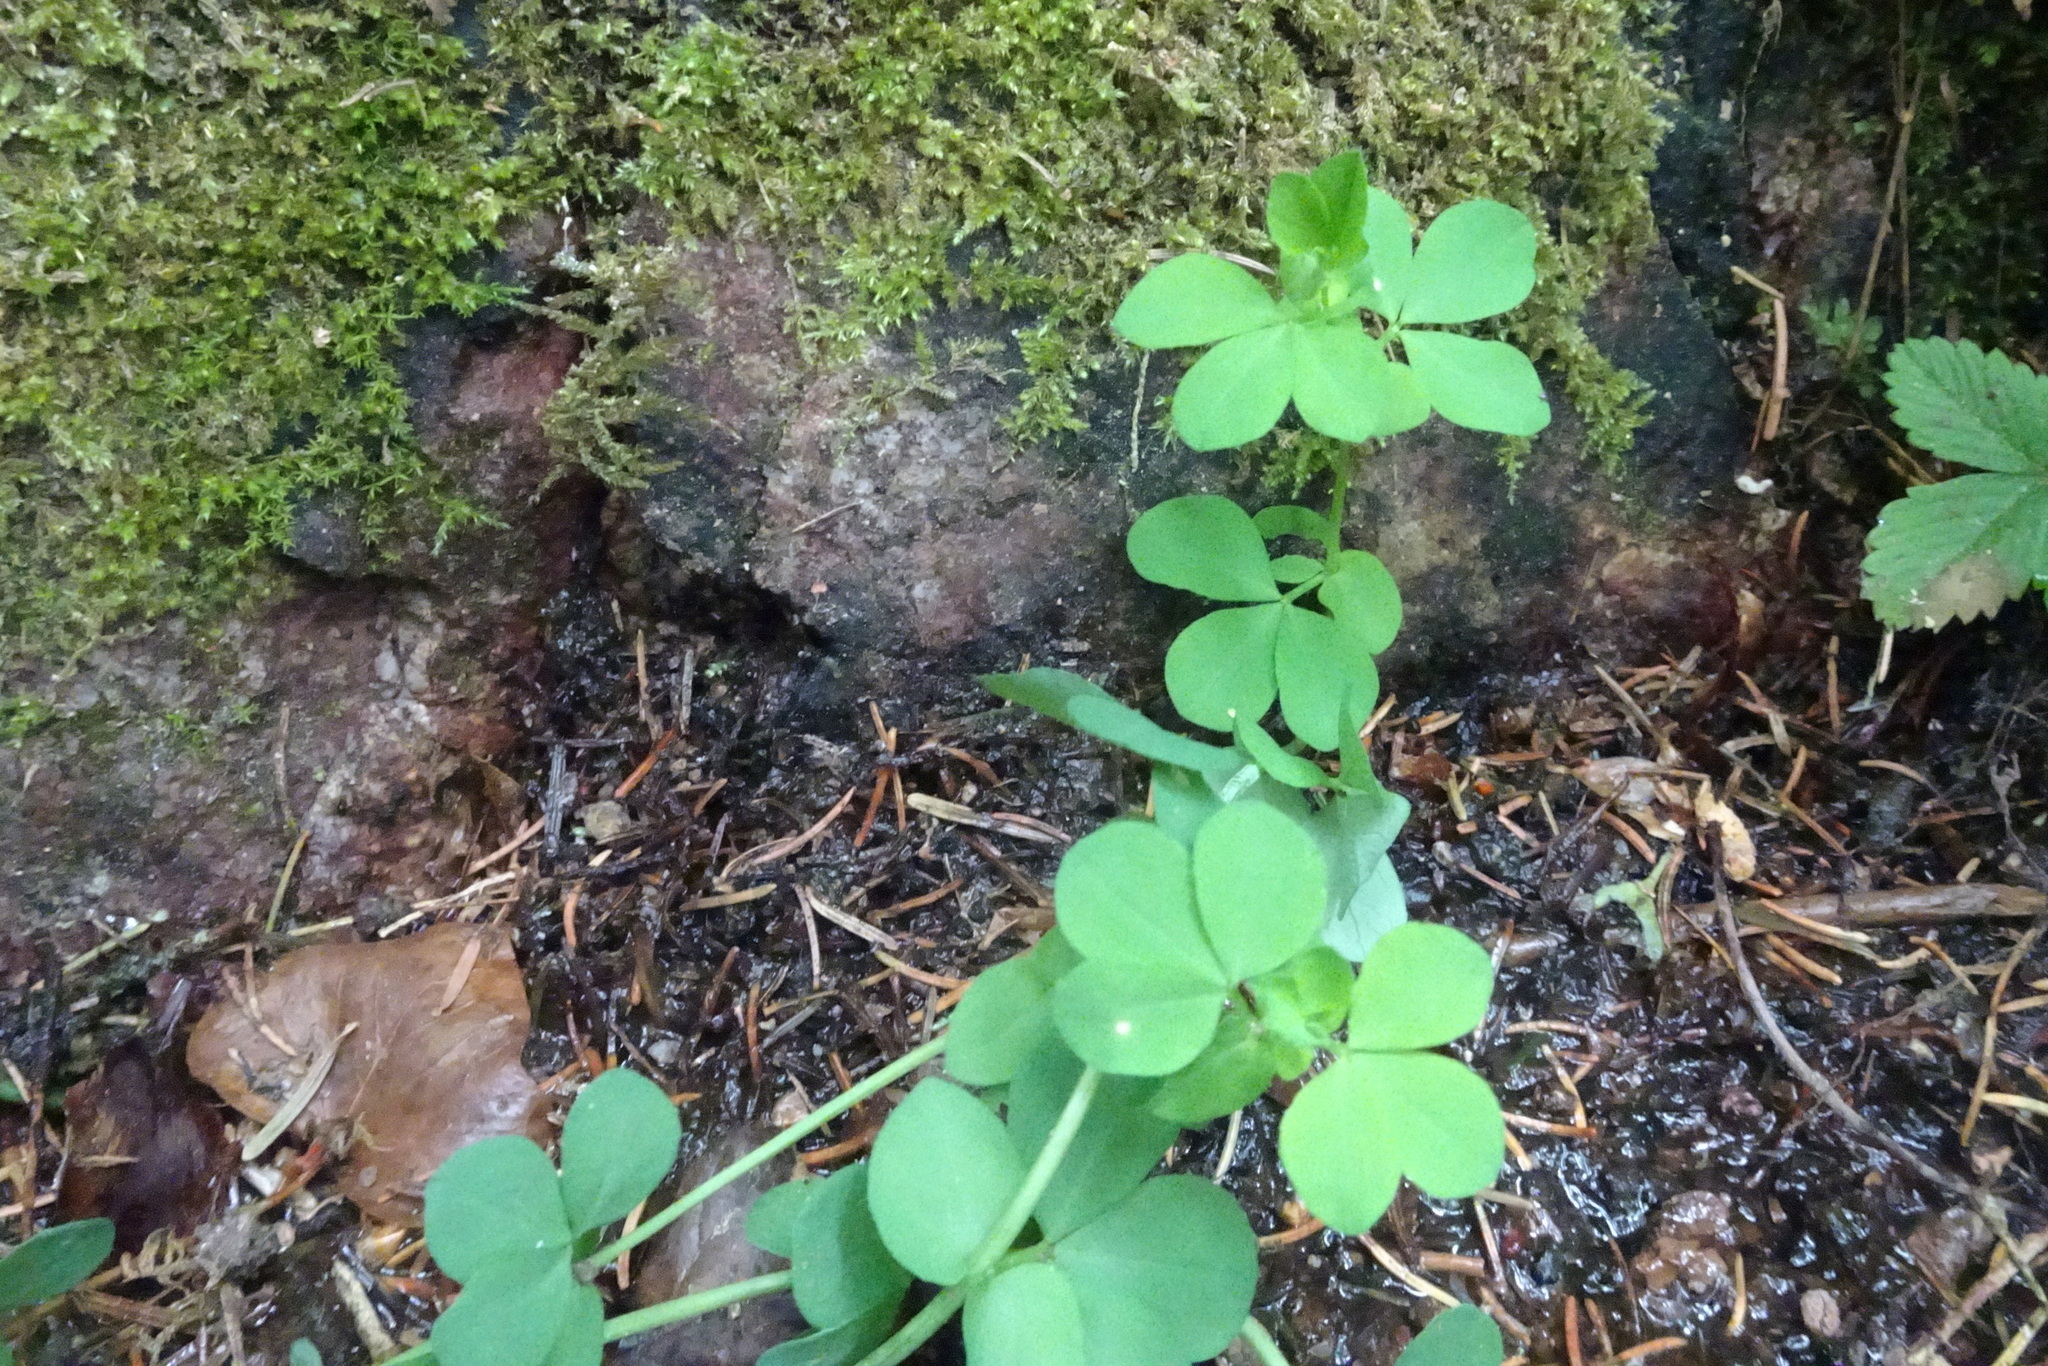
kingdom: Plantae
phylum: Tracheophyta
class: Magnoliopsida
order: Fabales
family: Fabaceae
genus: Lotus
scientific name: Lotus pedunculatus
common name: Greater birdsfoot-trefoil
